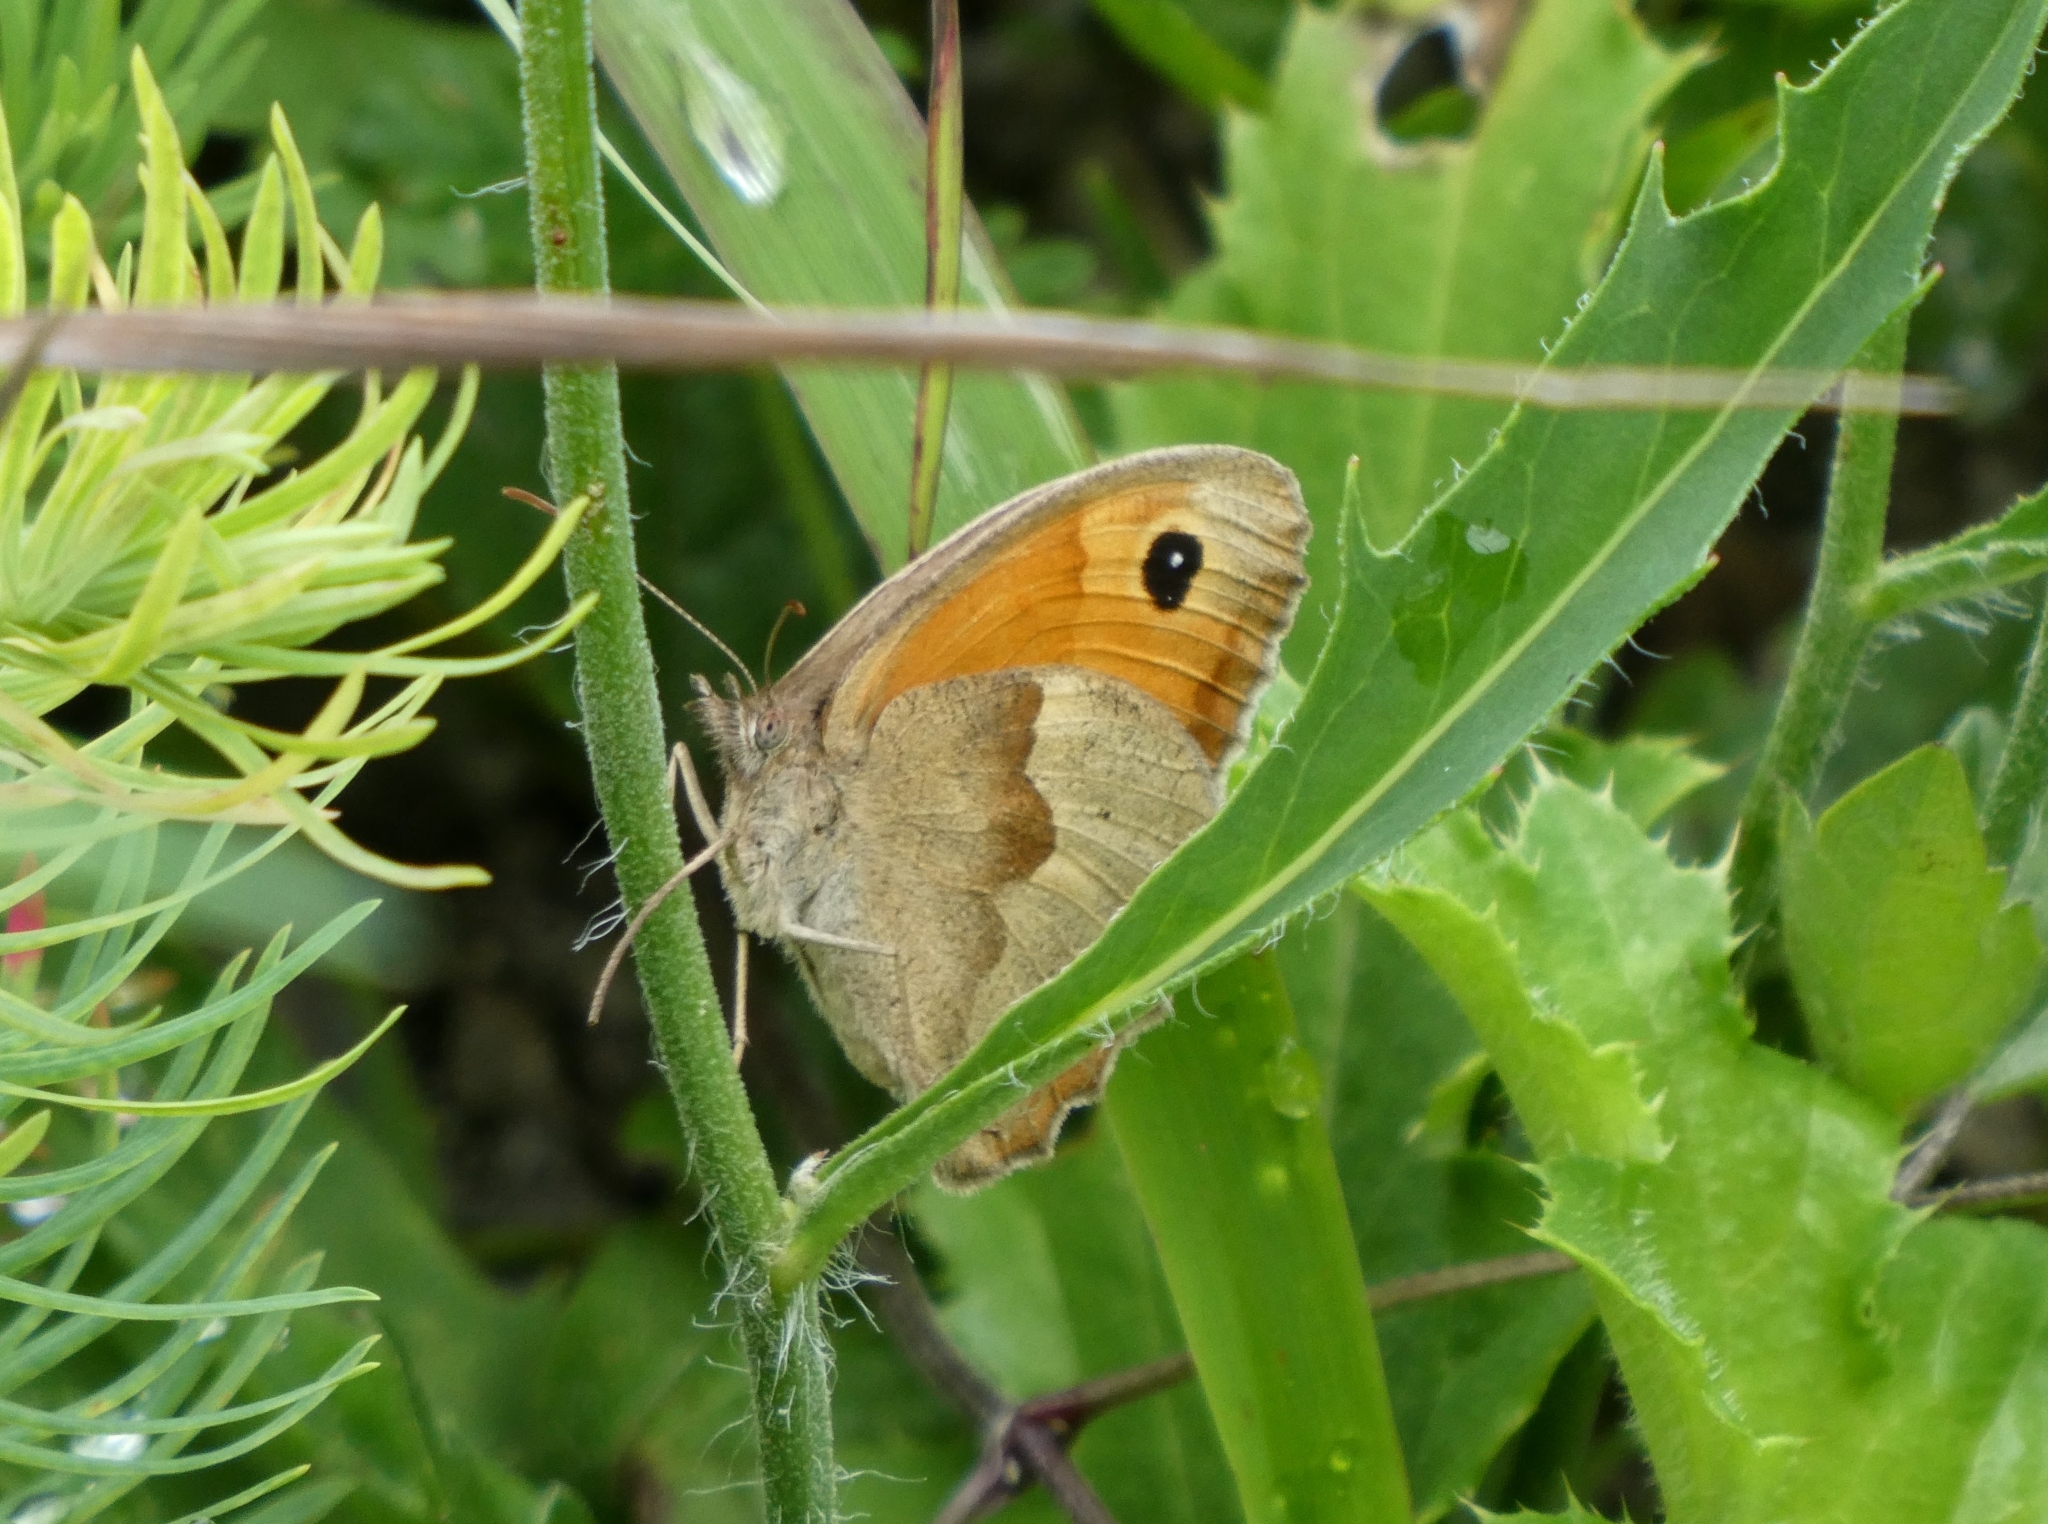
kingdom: Animalia
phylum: Arthropoda
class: Insecta
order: Lepidoptera
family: Nymphalidae
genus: Maniola
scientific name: Maniola jurtina
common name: Meadow brown
